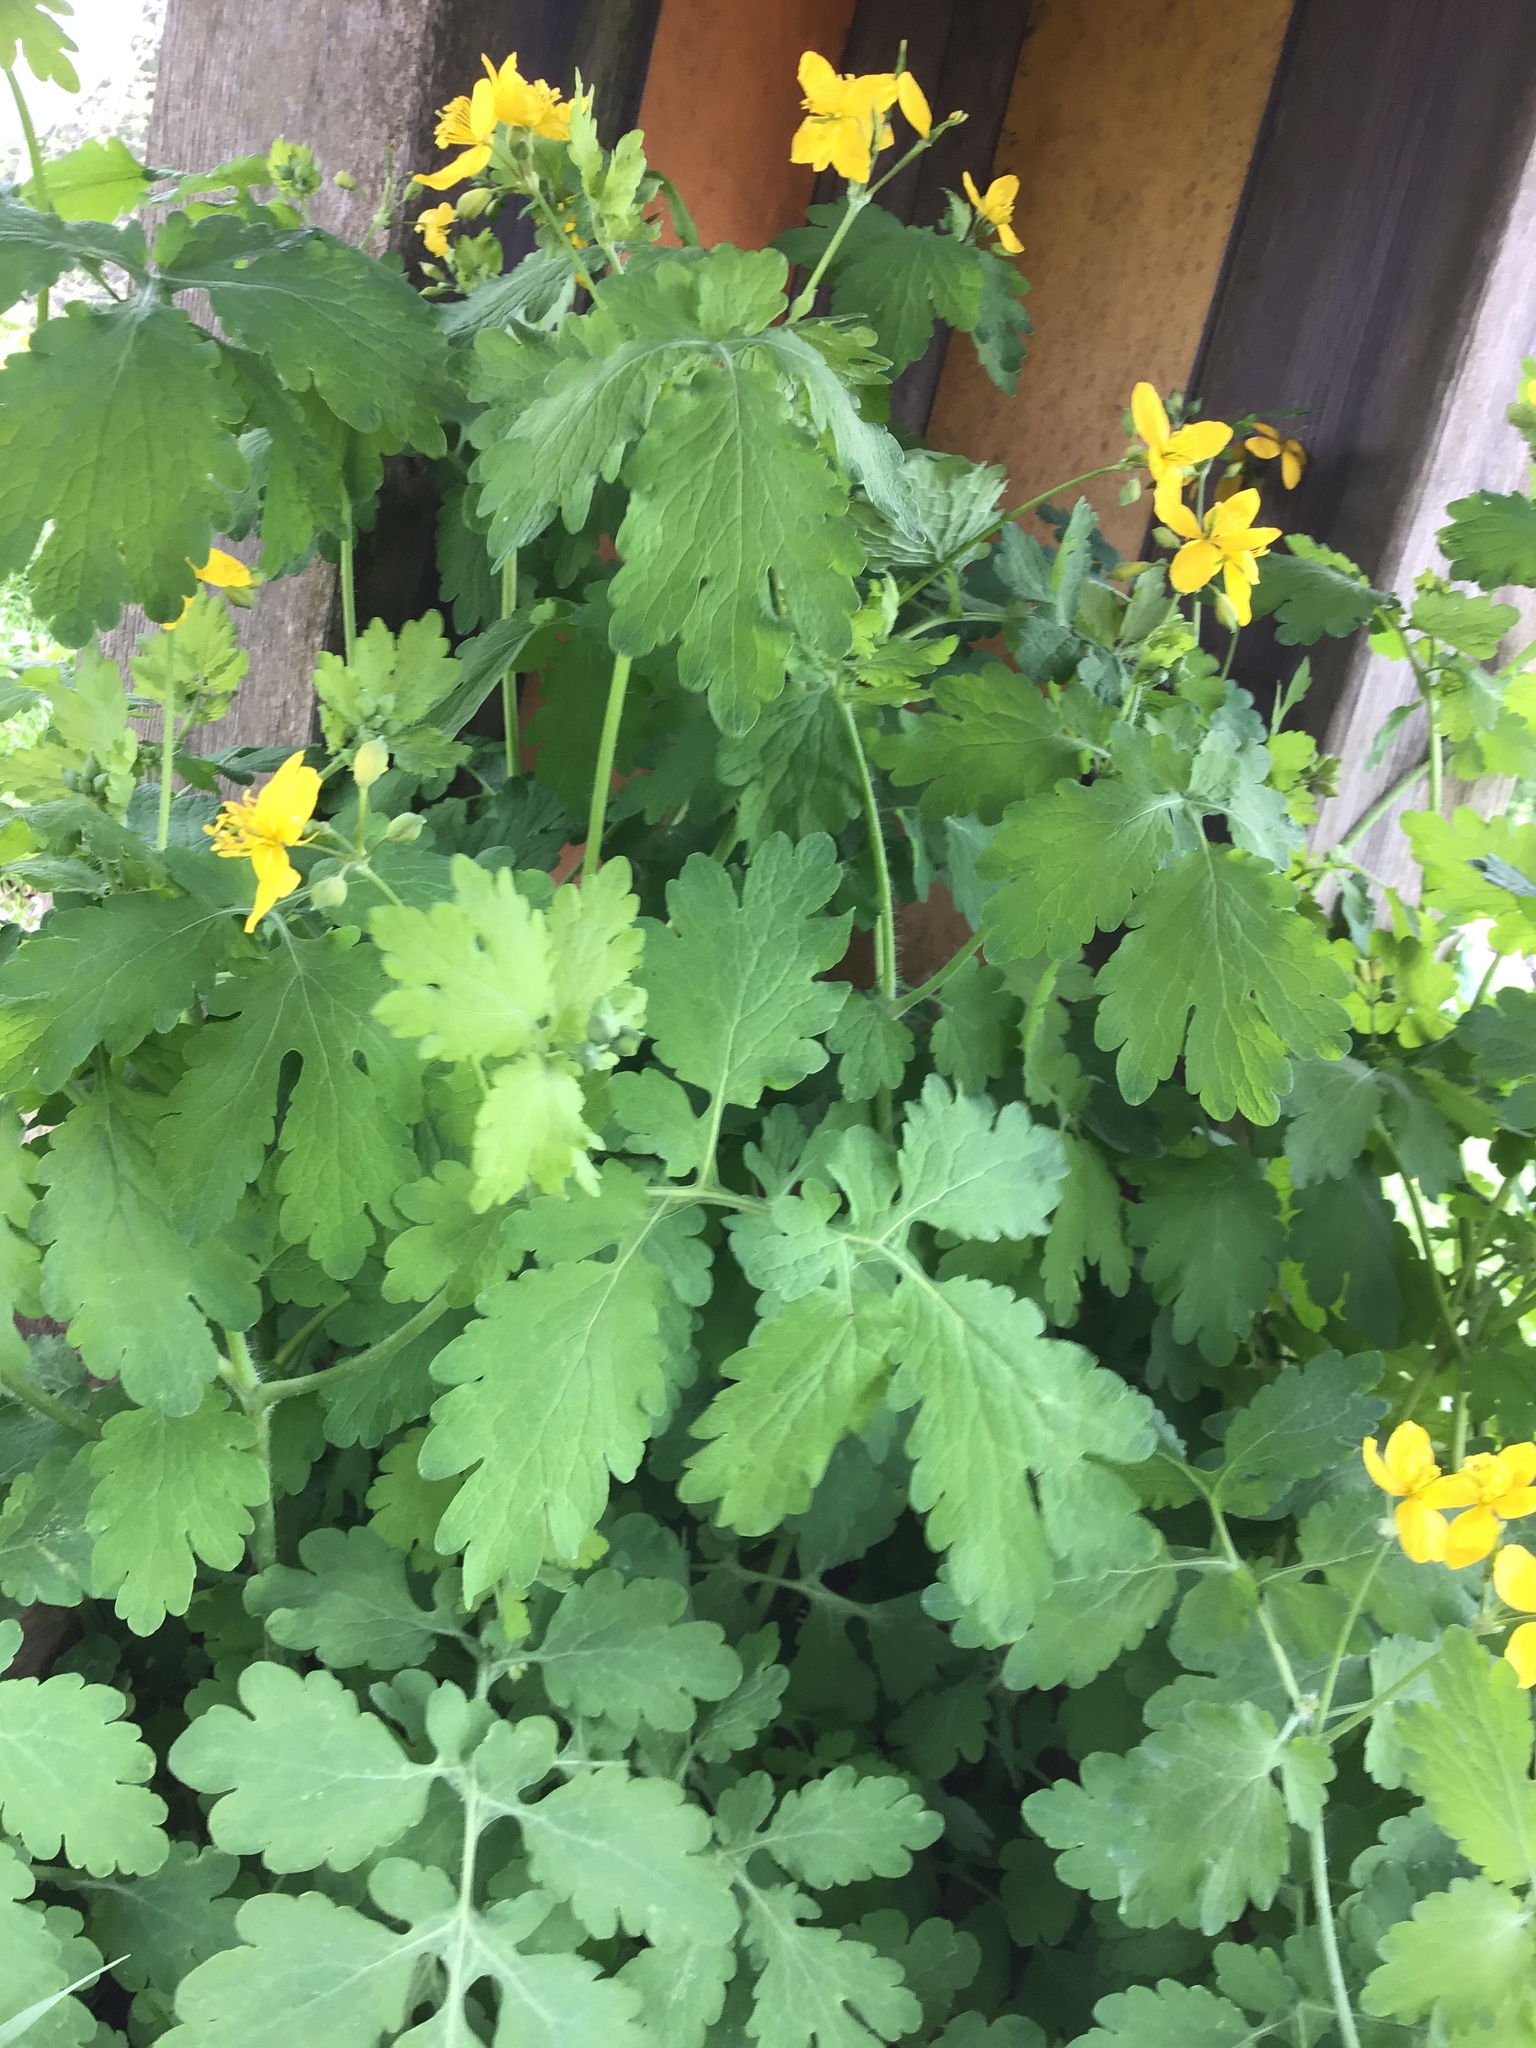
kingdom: Plantae
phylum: Tracheophyta
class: Magnoliopsida
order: Ranunculales
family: Papaveraceae
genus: Chelidonium
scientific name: Chelidonium majus
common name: Greater celandine
